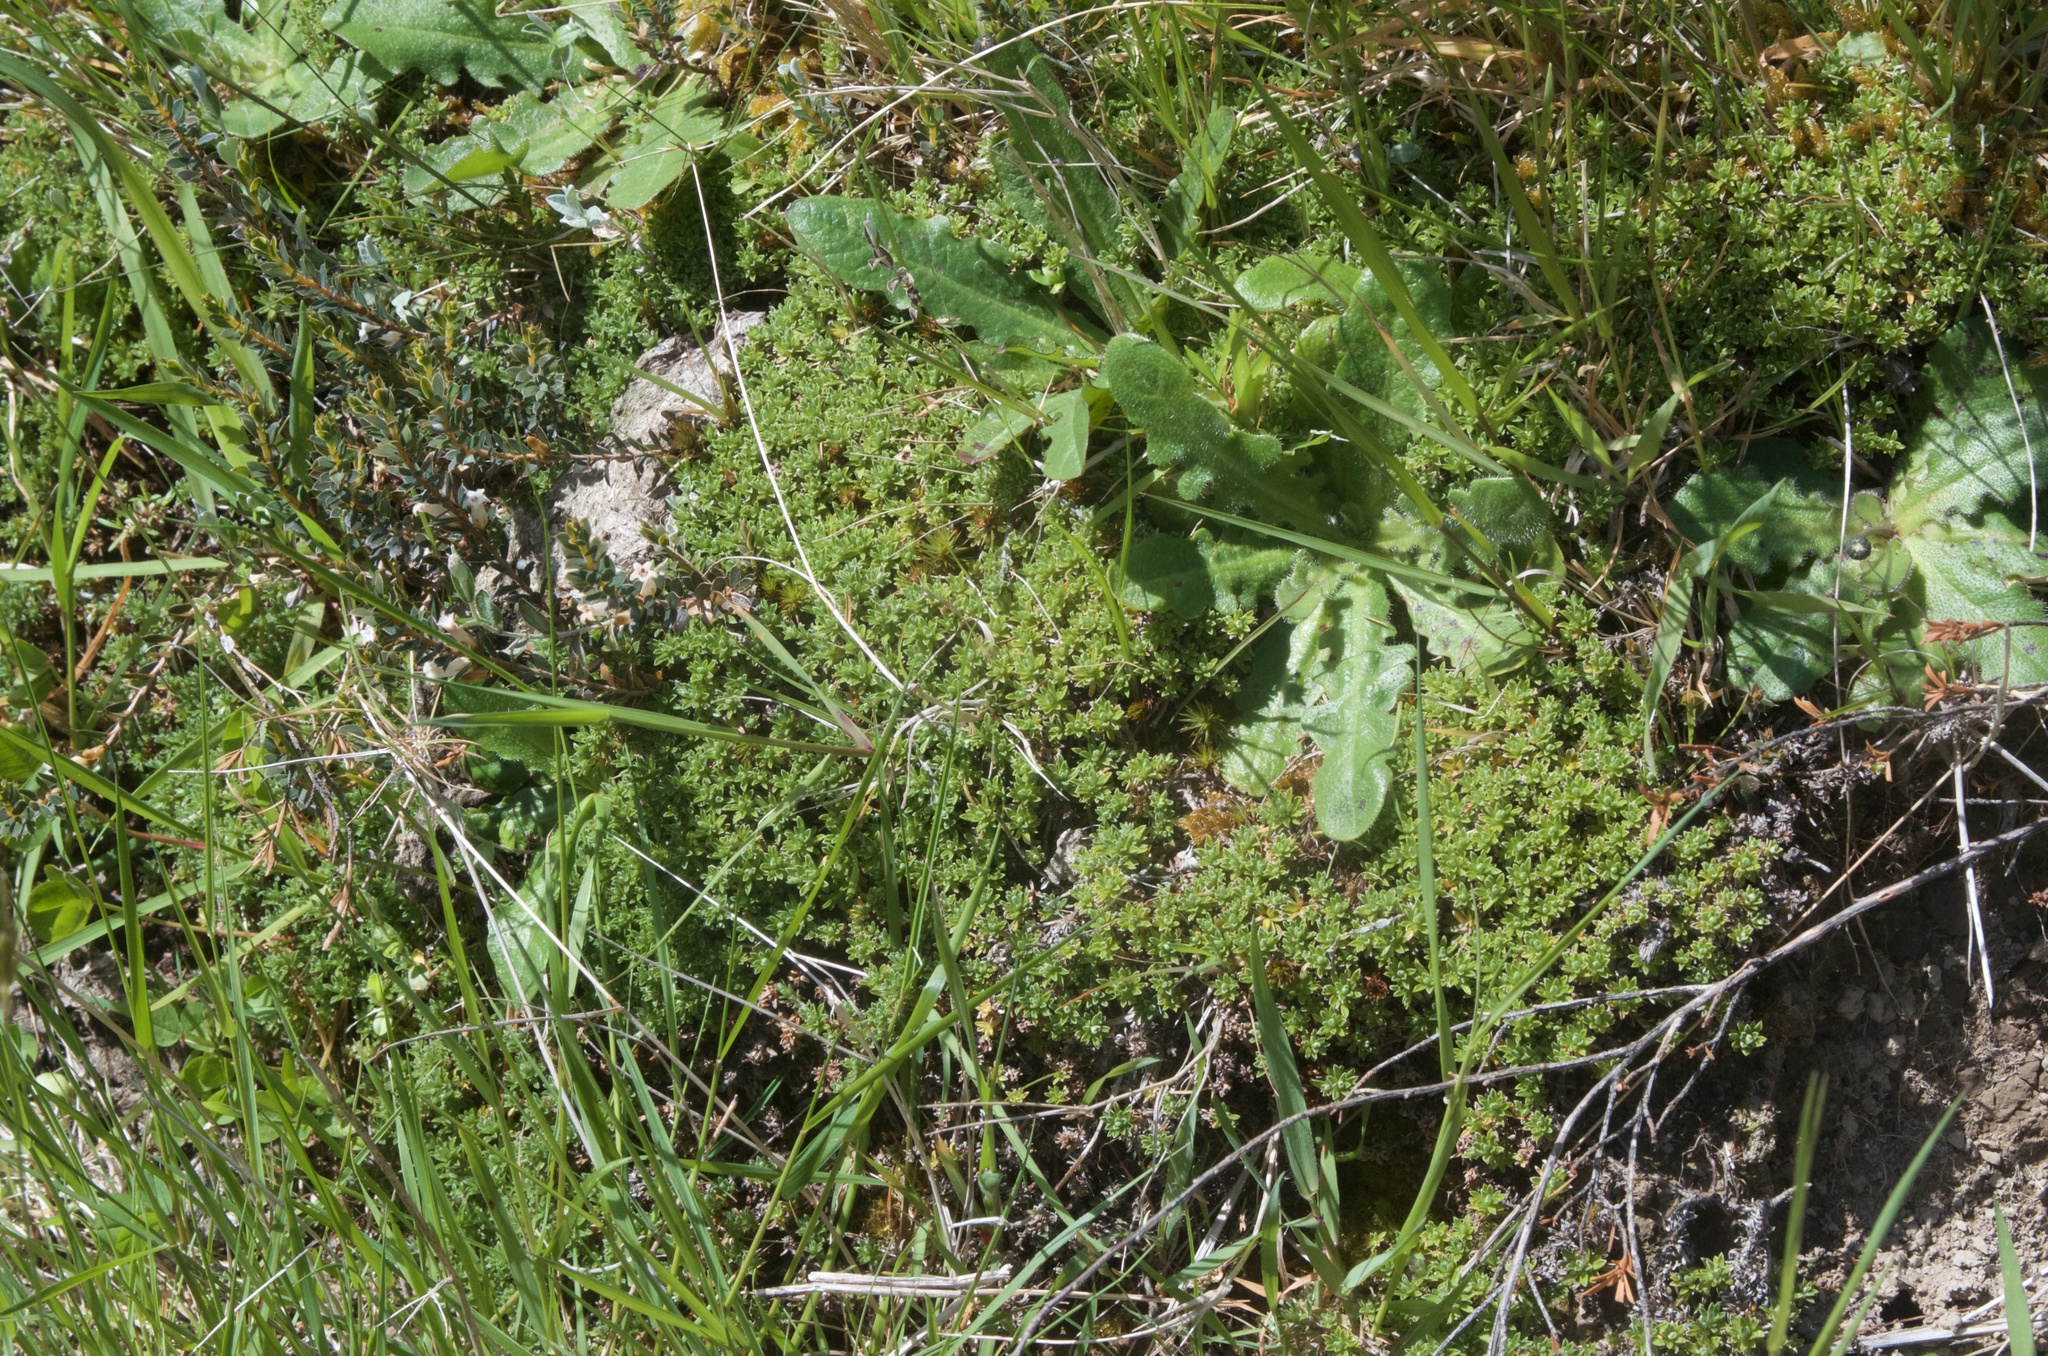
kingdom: Plantae
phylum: Tracheophyta
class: Magnoliopsida
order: Asterales
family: Asteraceae
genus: Raoulia
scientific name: Raoulia subsericea
